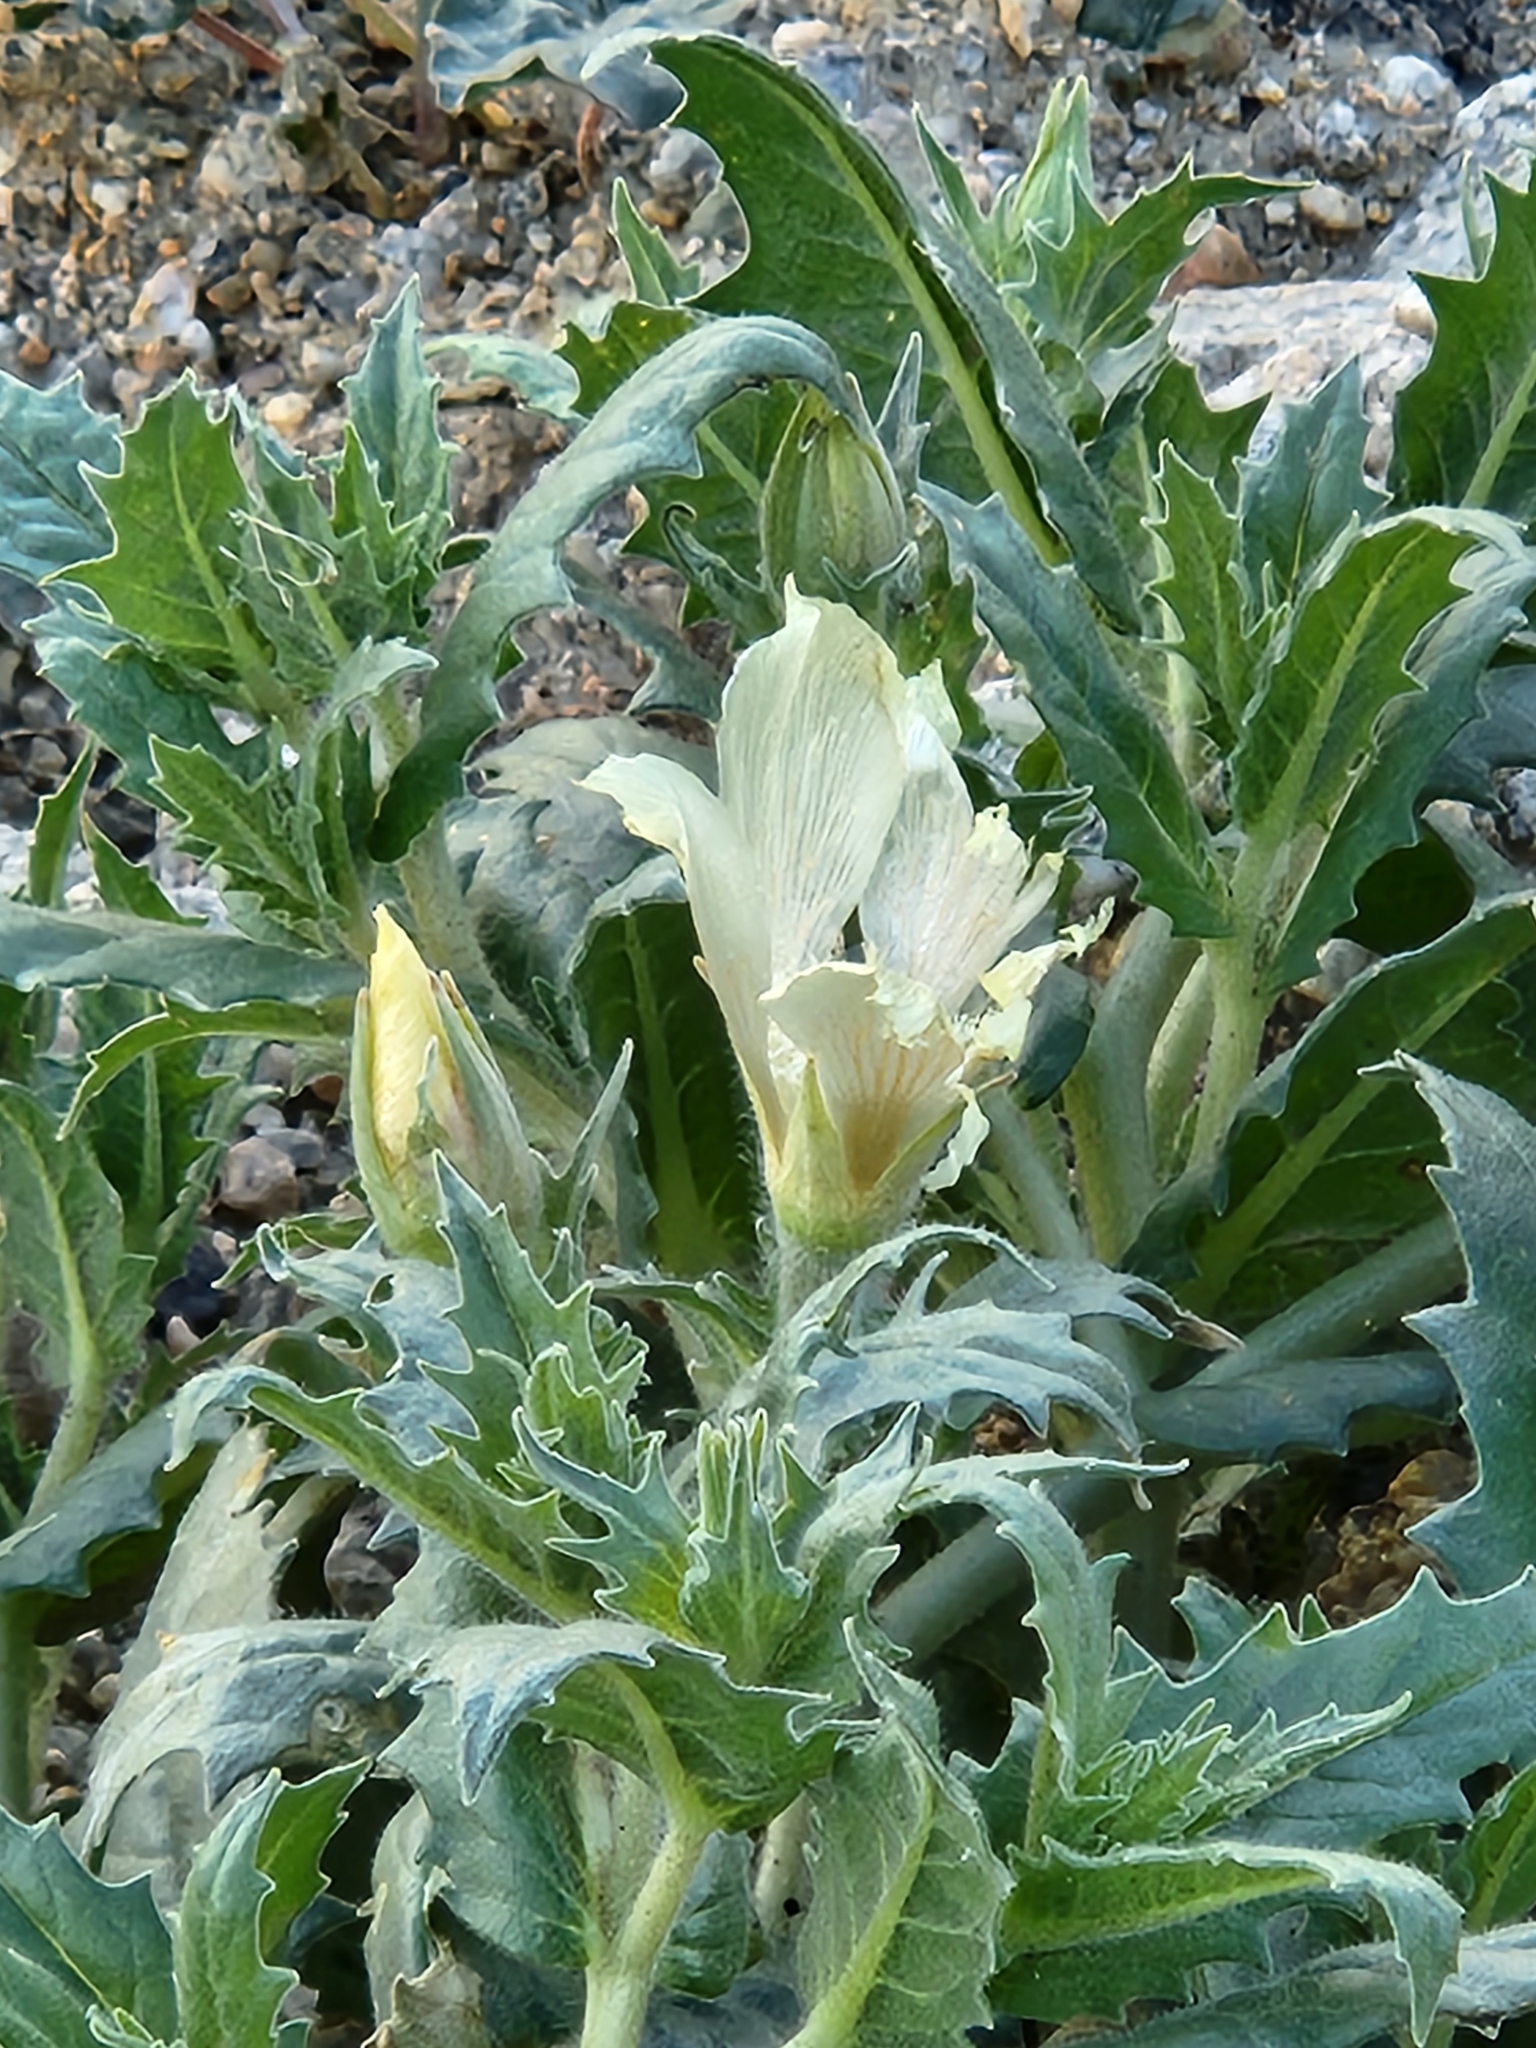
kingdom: Plantae
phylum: Tracheophyta
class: Magnoliopsida
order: Cornales
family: Loasaceae
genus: Mentzelia
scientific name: Mentzelia involucrata
